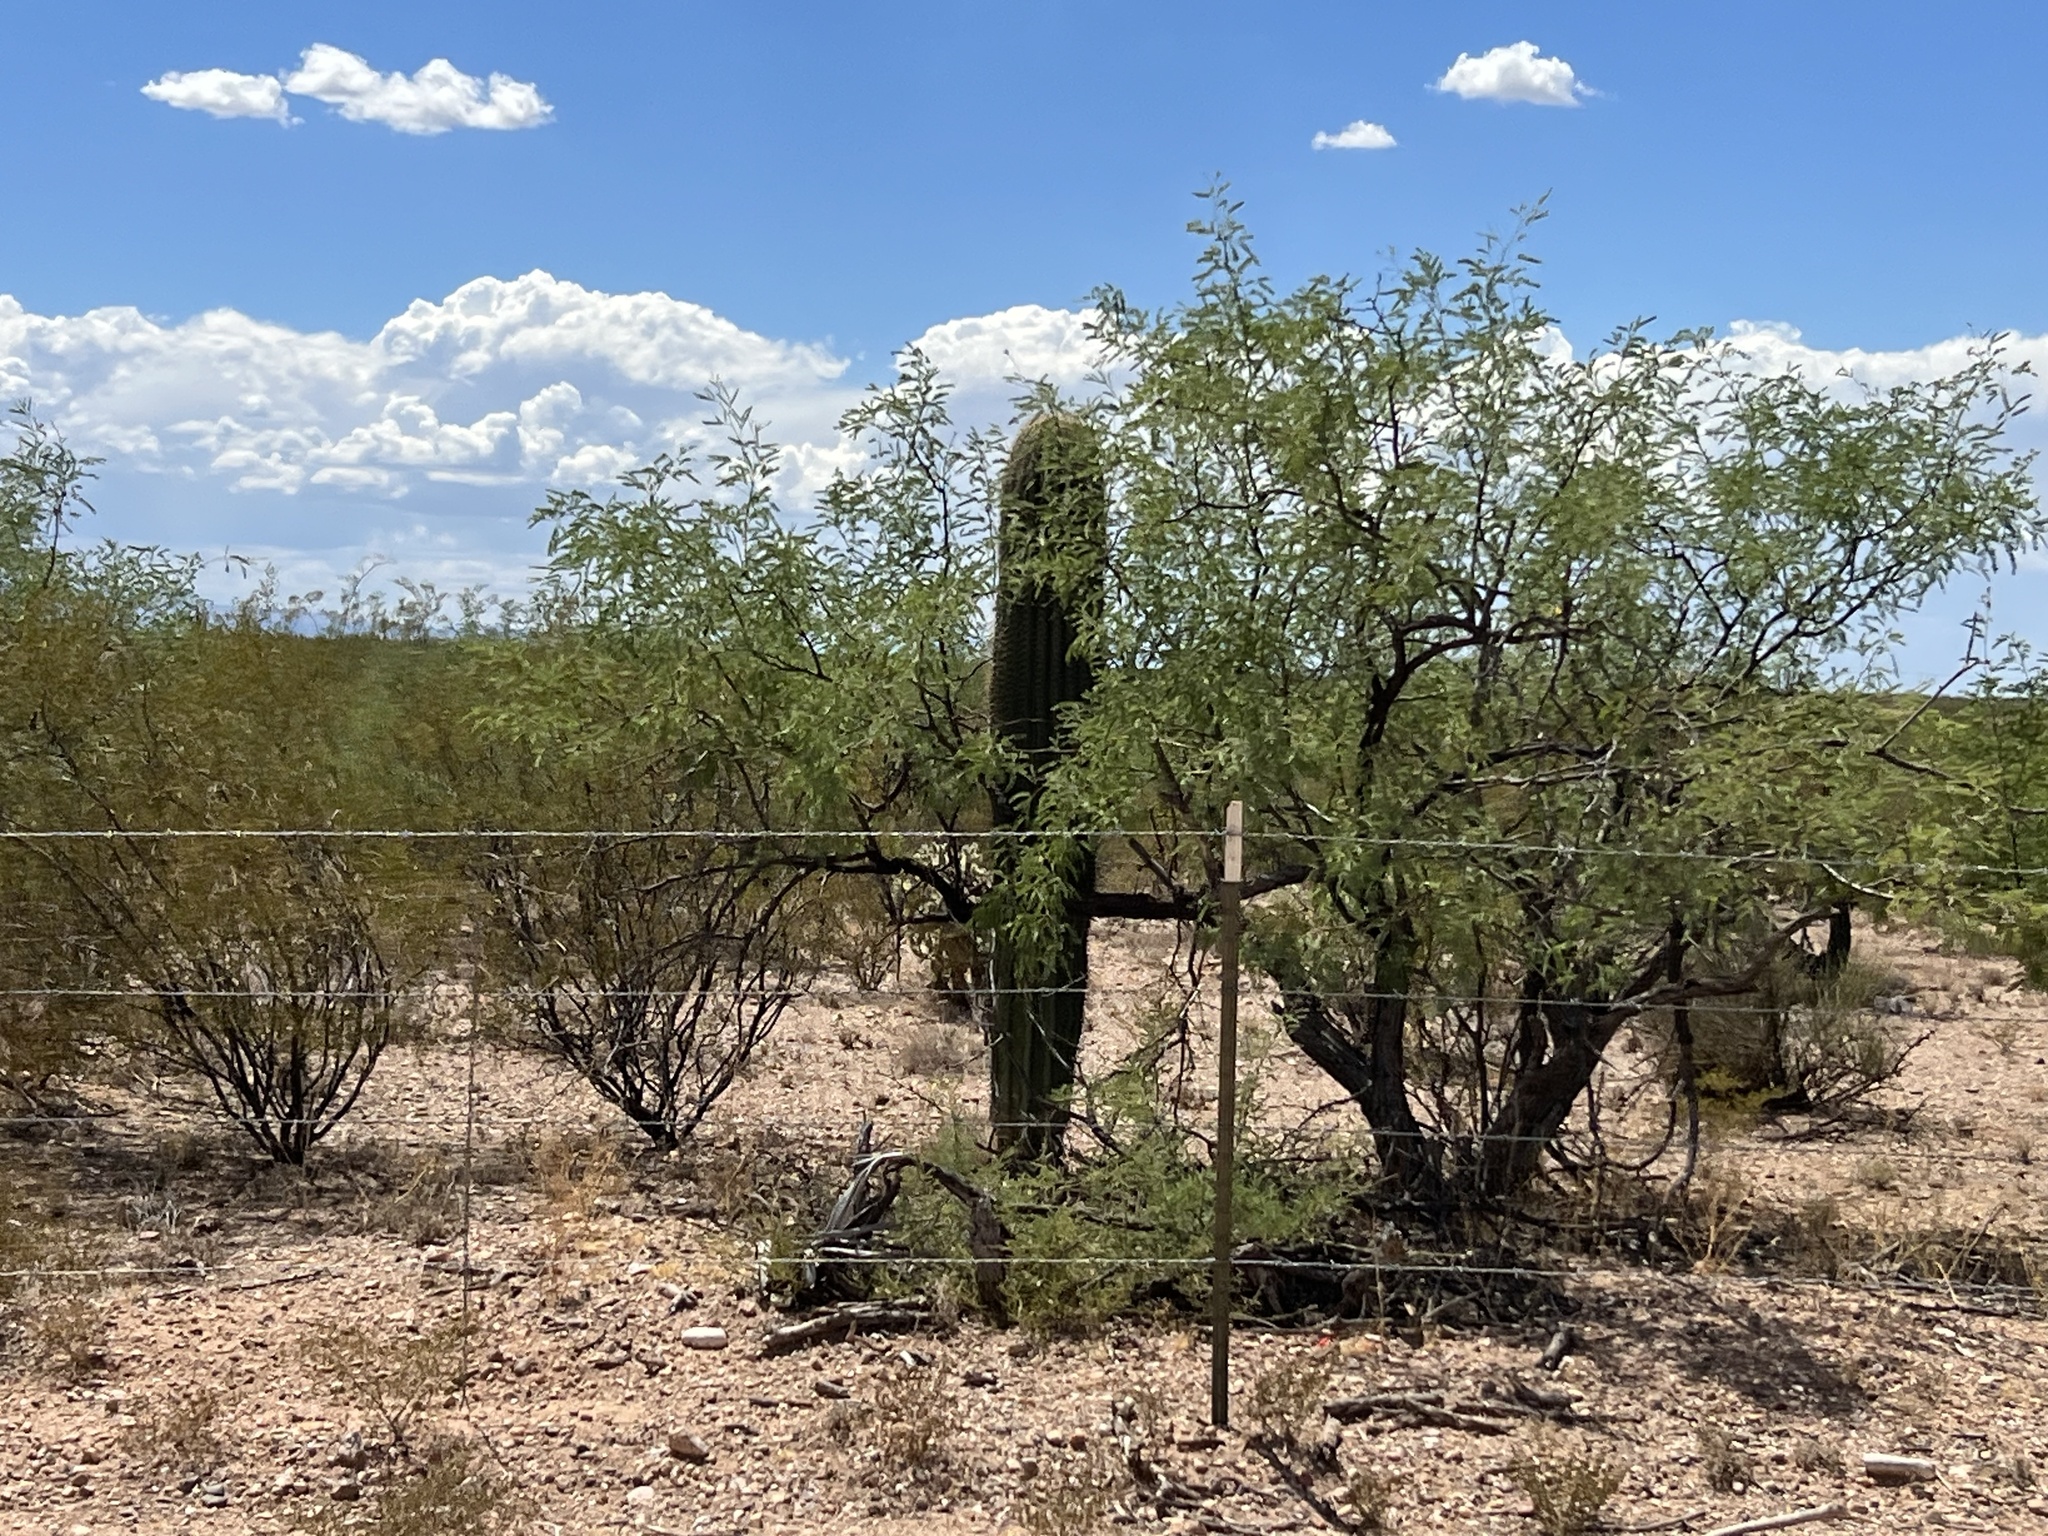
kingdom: Plantae
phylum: Tracheophyta
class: Magnoliopsida
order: Caryophyllales
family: Cactaceae
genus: Carnegiea
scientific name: Carnegiea gigantea
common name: Saguaro
